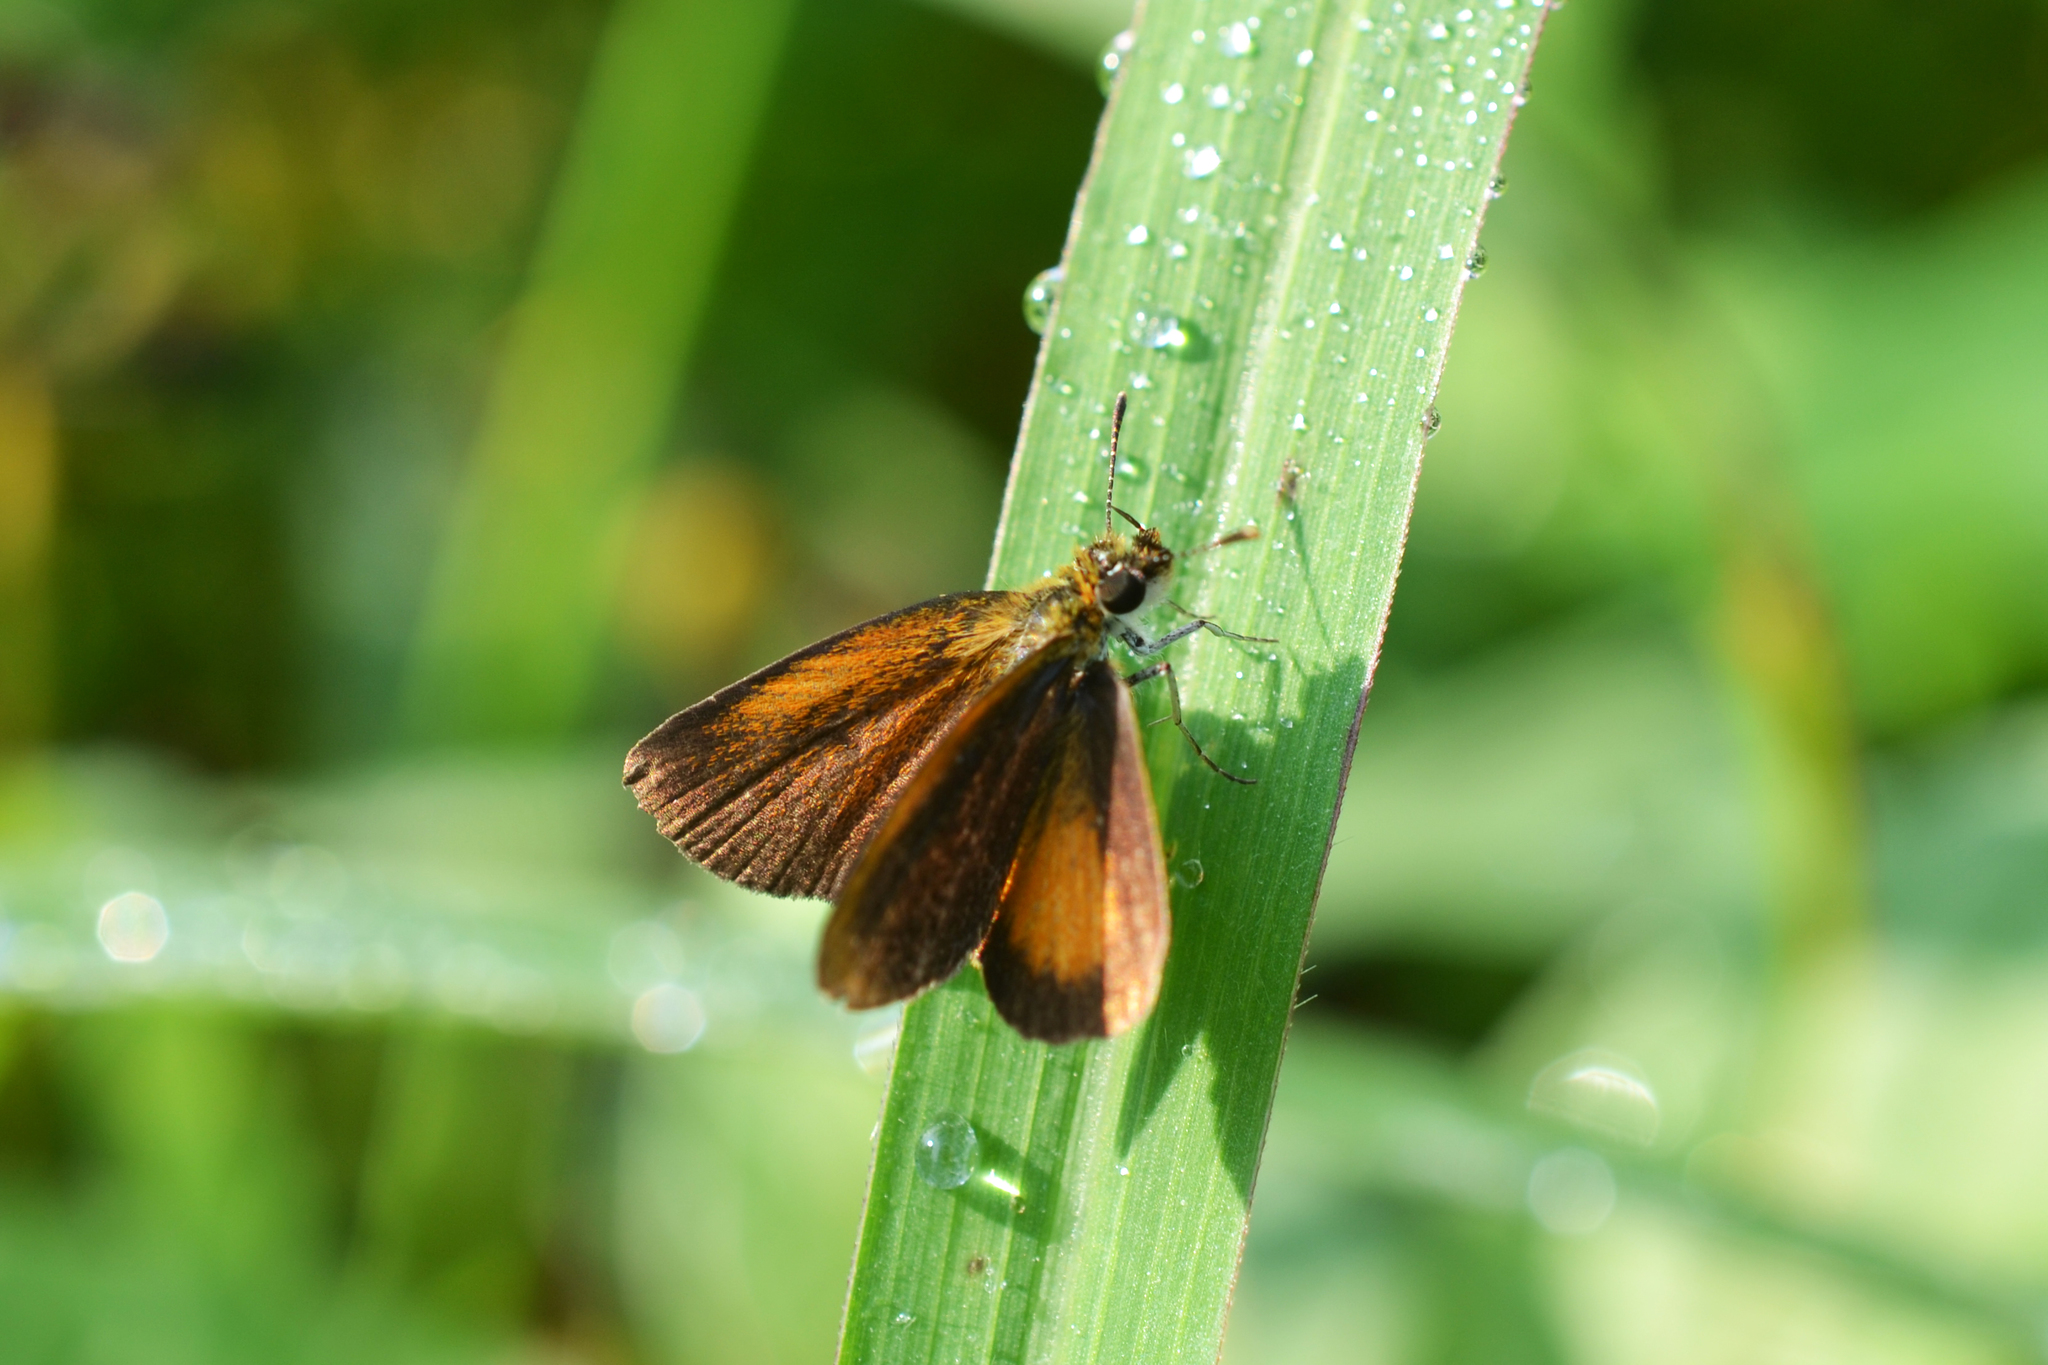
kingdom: Animalia
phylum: Arthropoda
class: Insecta
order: Lepidoptera
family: Hesperiidae
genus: Ancyloxypha
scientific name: Ancyloxypha numitor
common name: Least skipper
